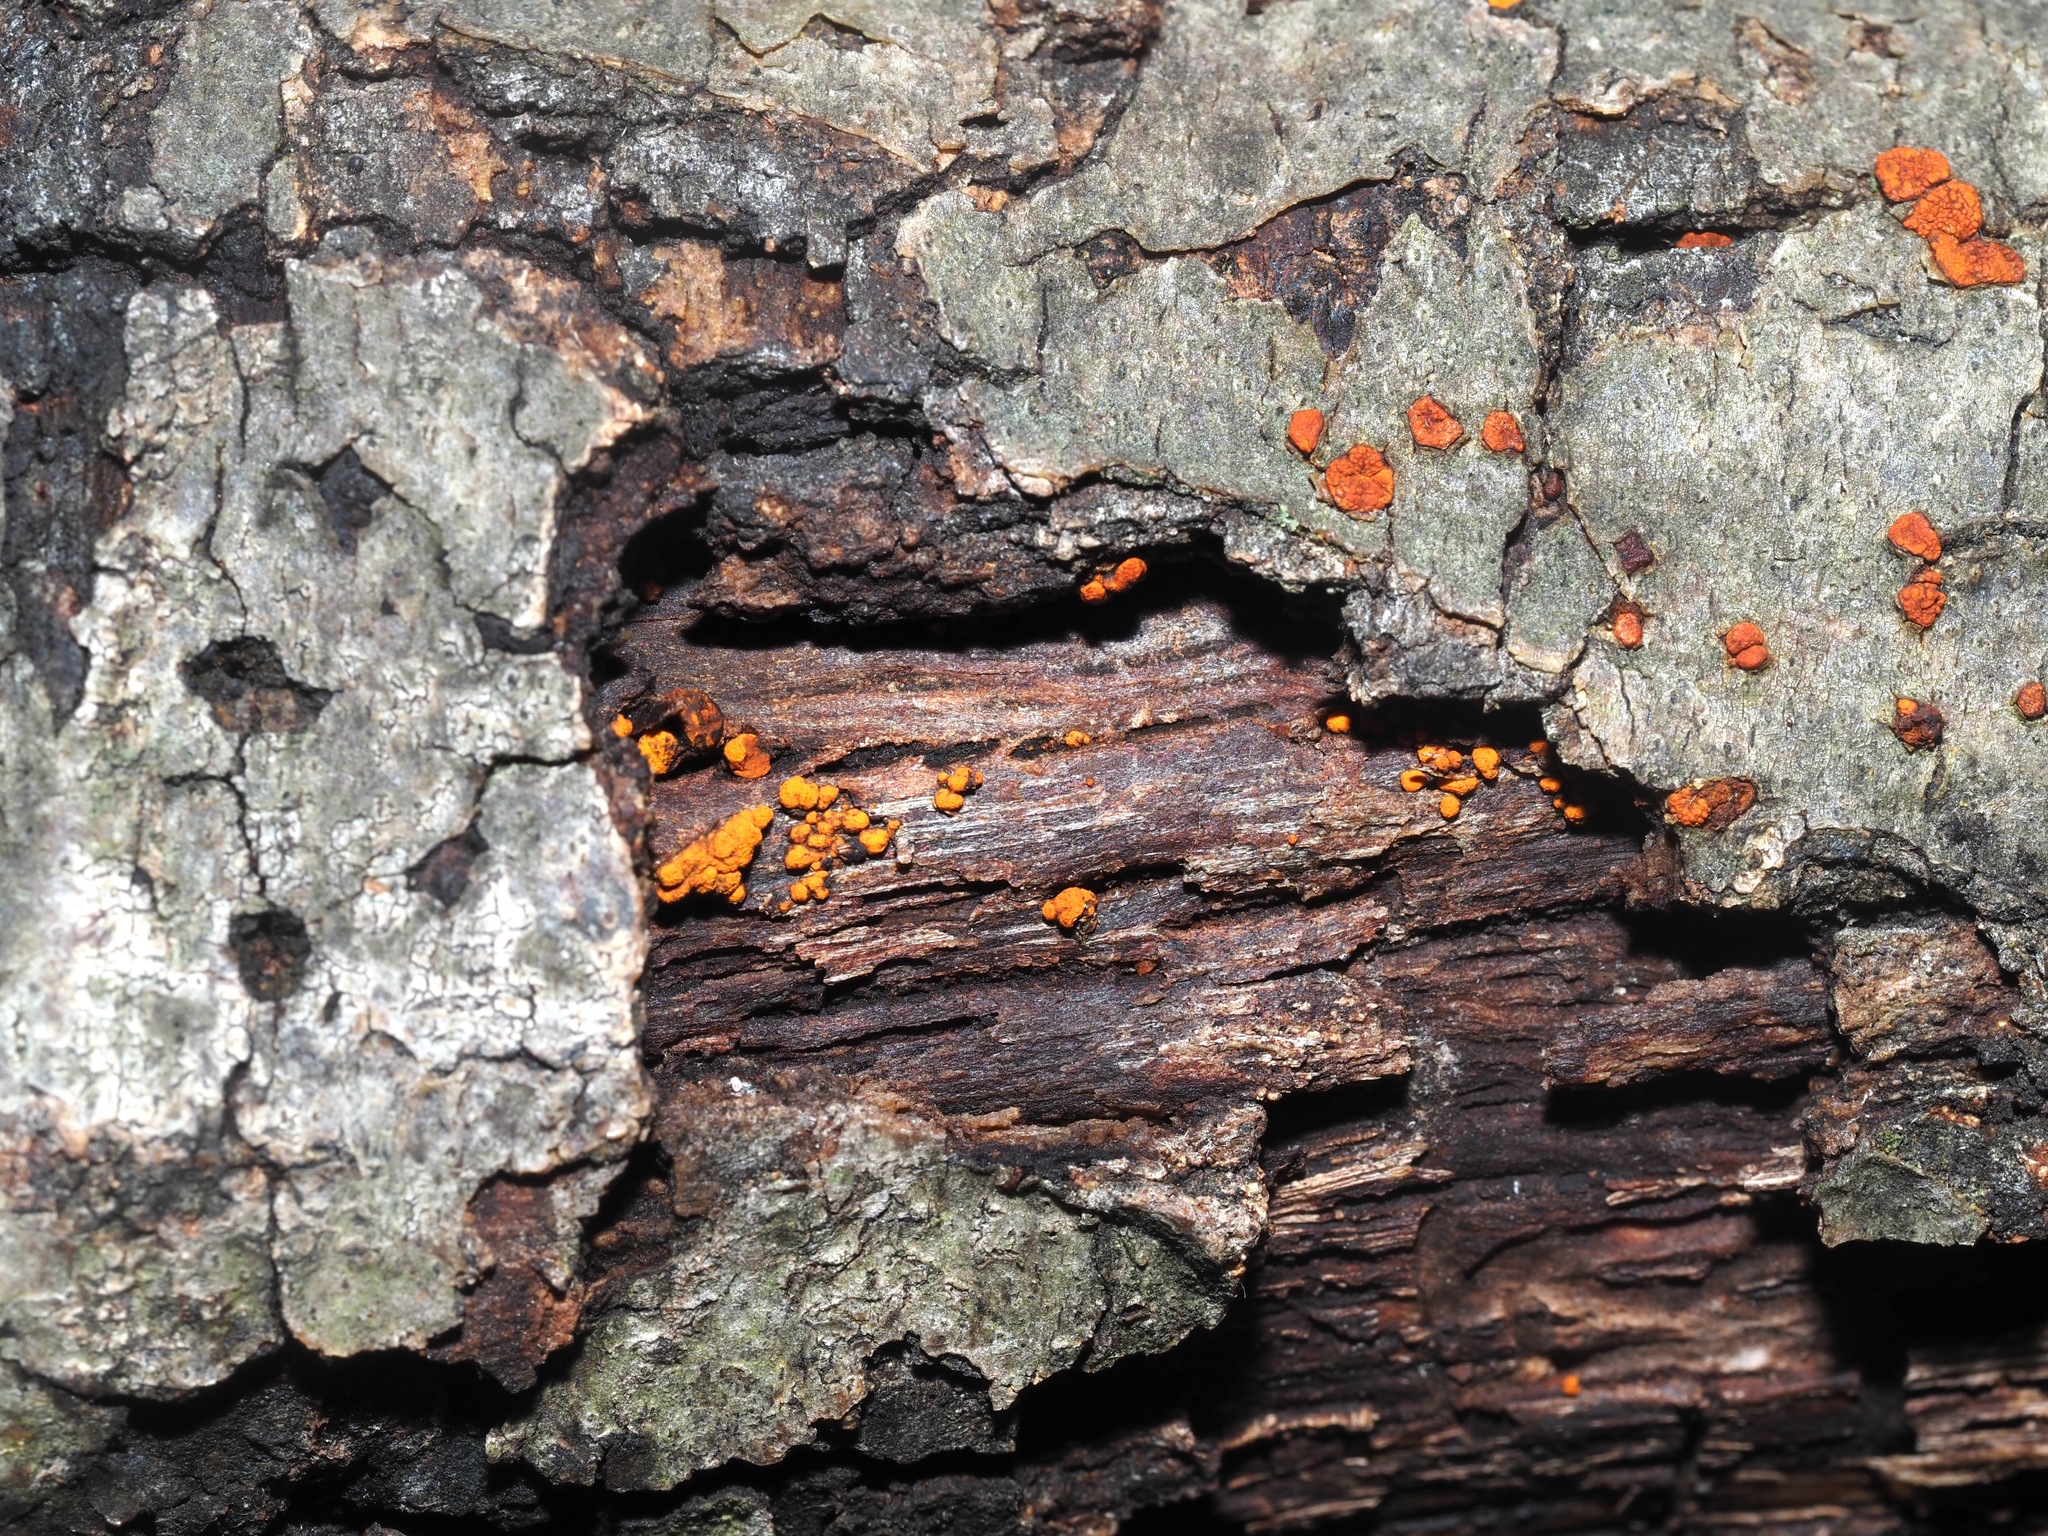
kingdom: Fungi
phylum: Ascomycota
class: Sordariomycetes
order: Diaporthales
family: Cryphonectriaceae
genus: Amphilogia
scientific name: Amphilogia gyrosa
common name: Orange hobnail canker
